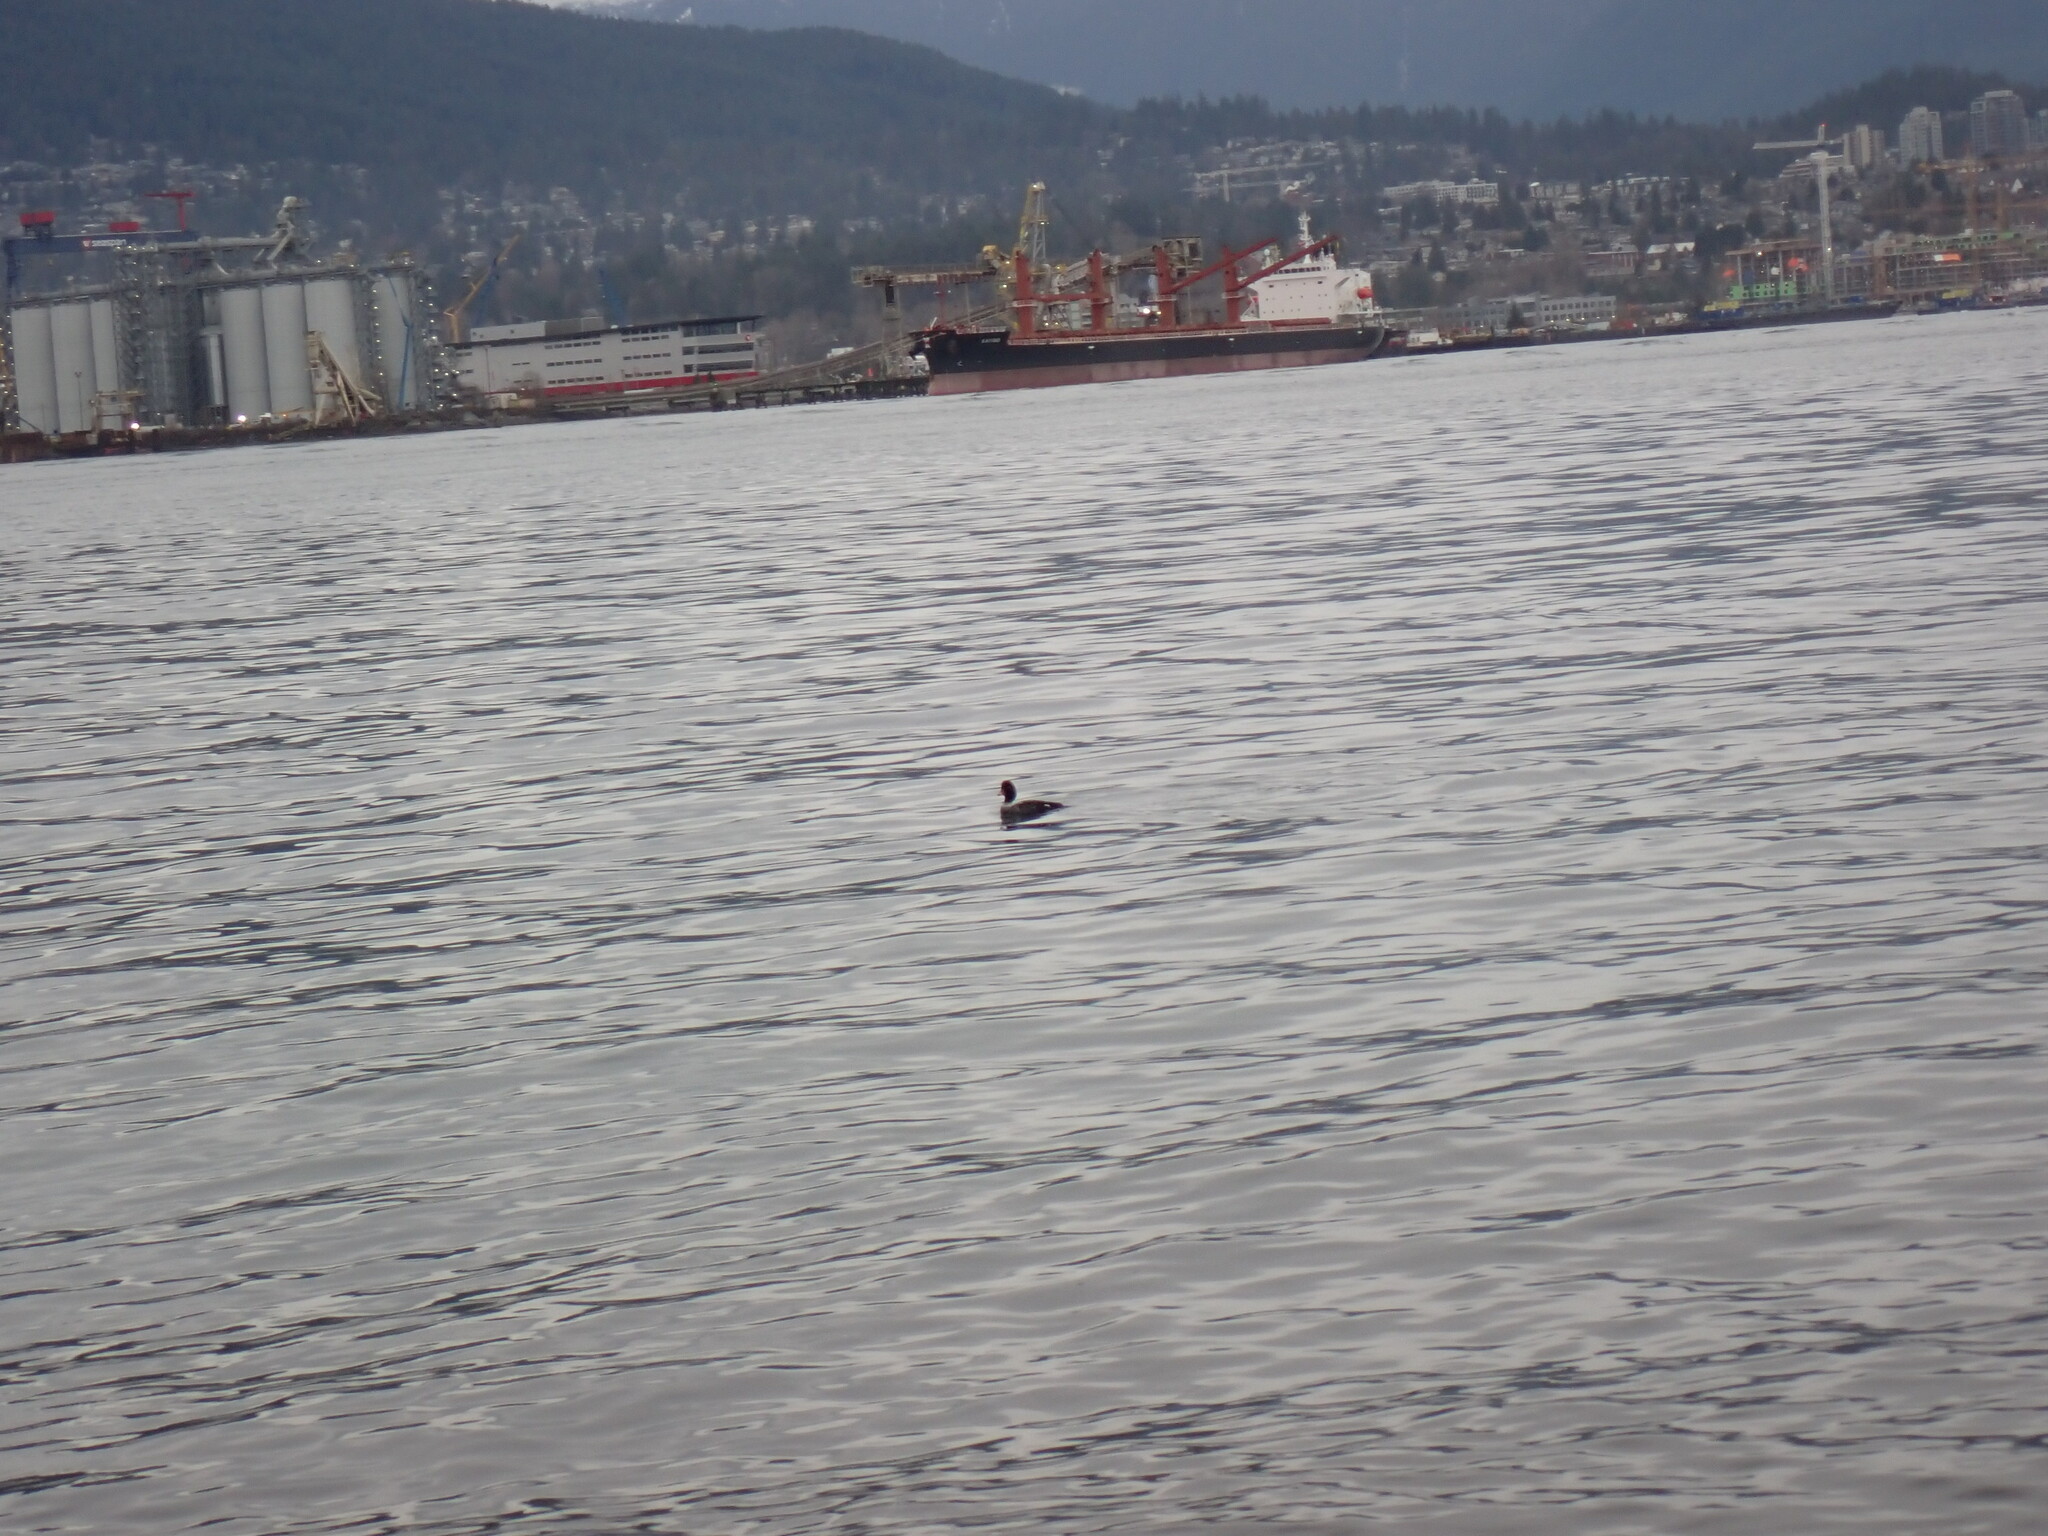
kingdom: Animalia
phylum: Chordata
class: Aves
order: Anseriformes
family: Anatidae
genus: Bucephala
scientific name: Bucephala islandica
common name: Barrow's goldeneye
